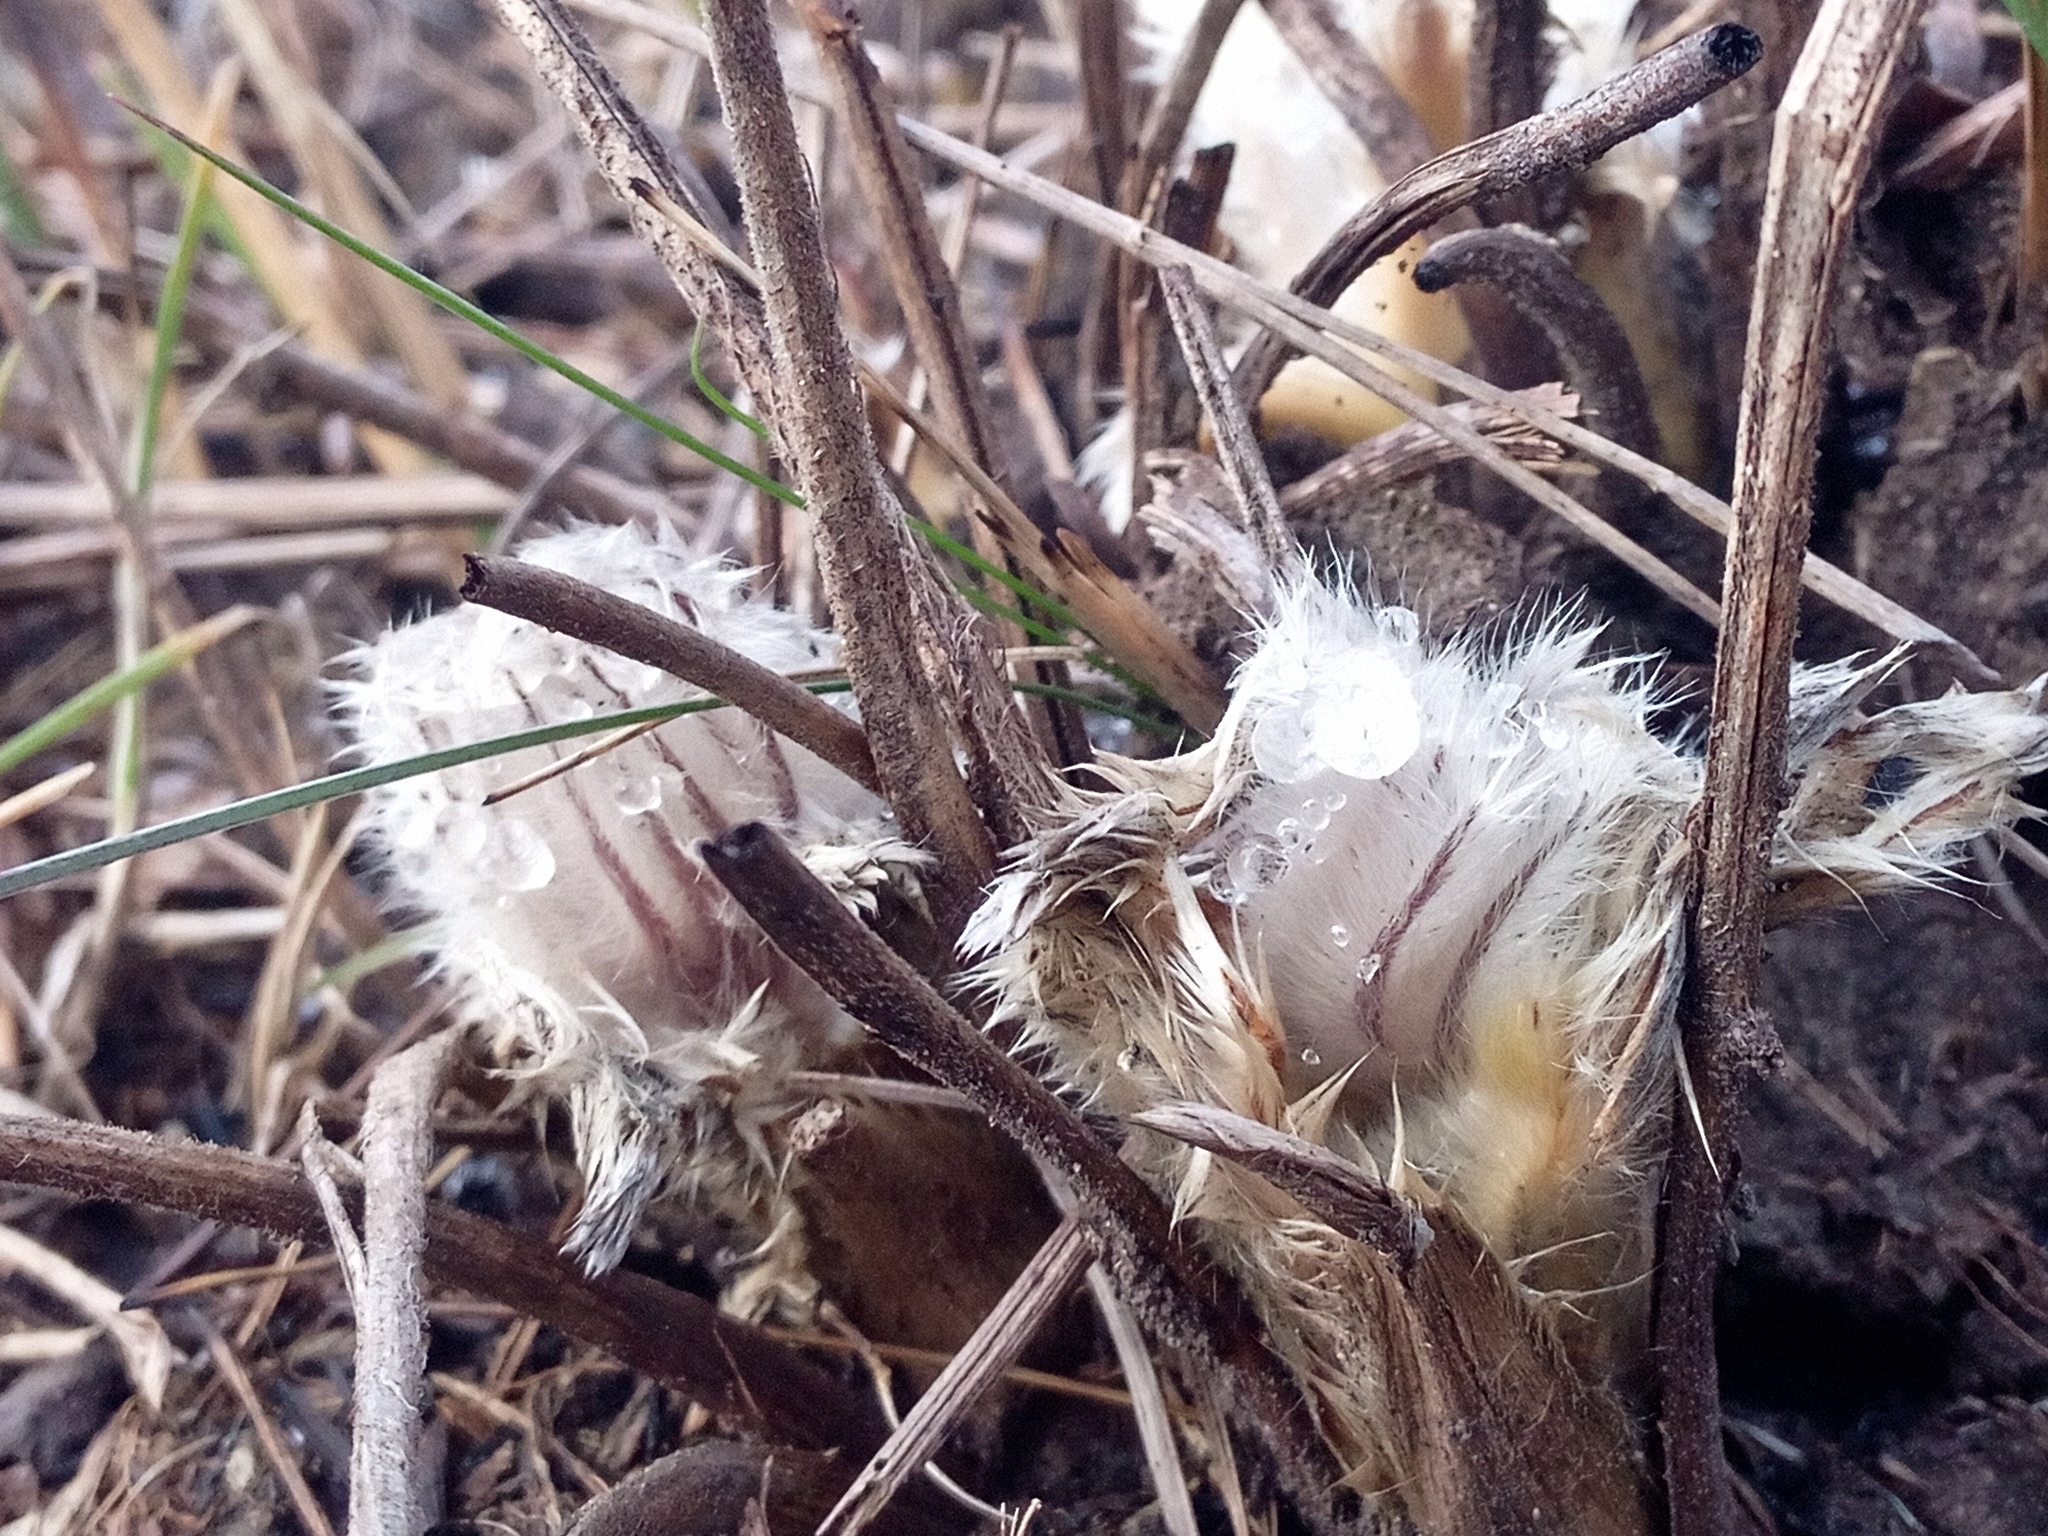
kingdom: Plantae
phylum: Tracheophyta
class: Magnoliopsida
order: Ranunculales
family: Ranunculaceae
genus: Pulsatilla
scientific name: Pulsatilla pratensis
